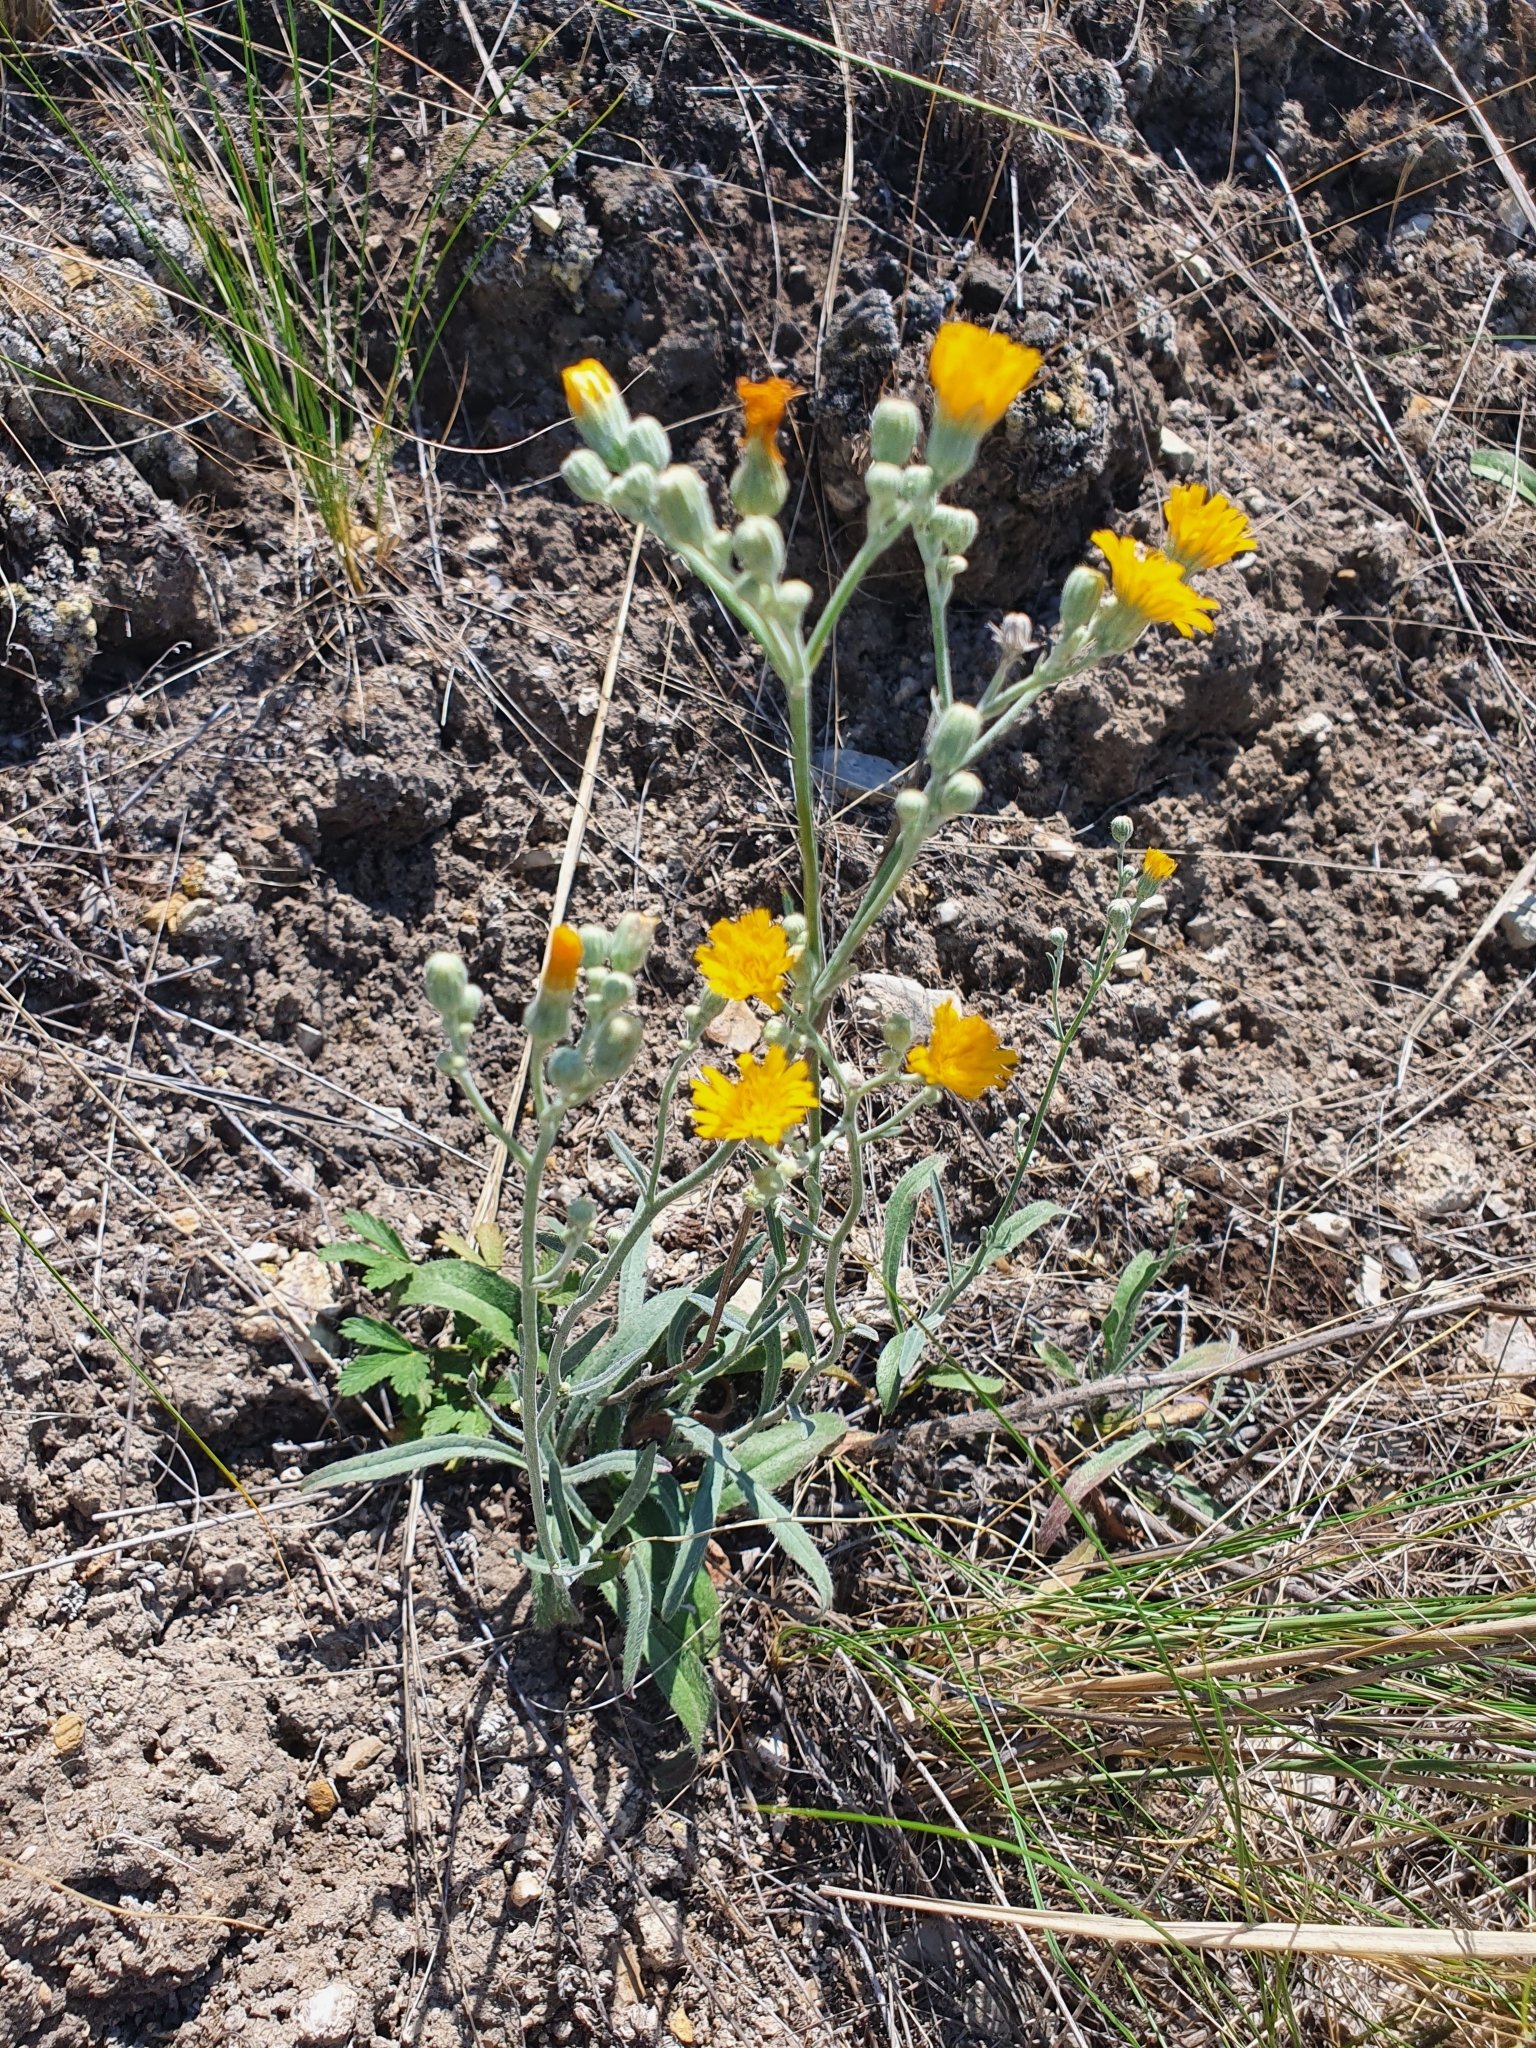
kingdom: Plantae
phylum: Tracheophyta
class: Magnoliopsida
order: Asterales
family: Asteraceae
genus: Pilosella
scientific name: Pilosella echioides
